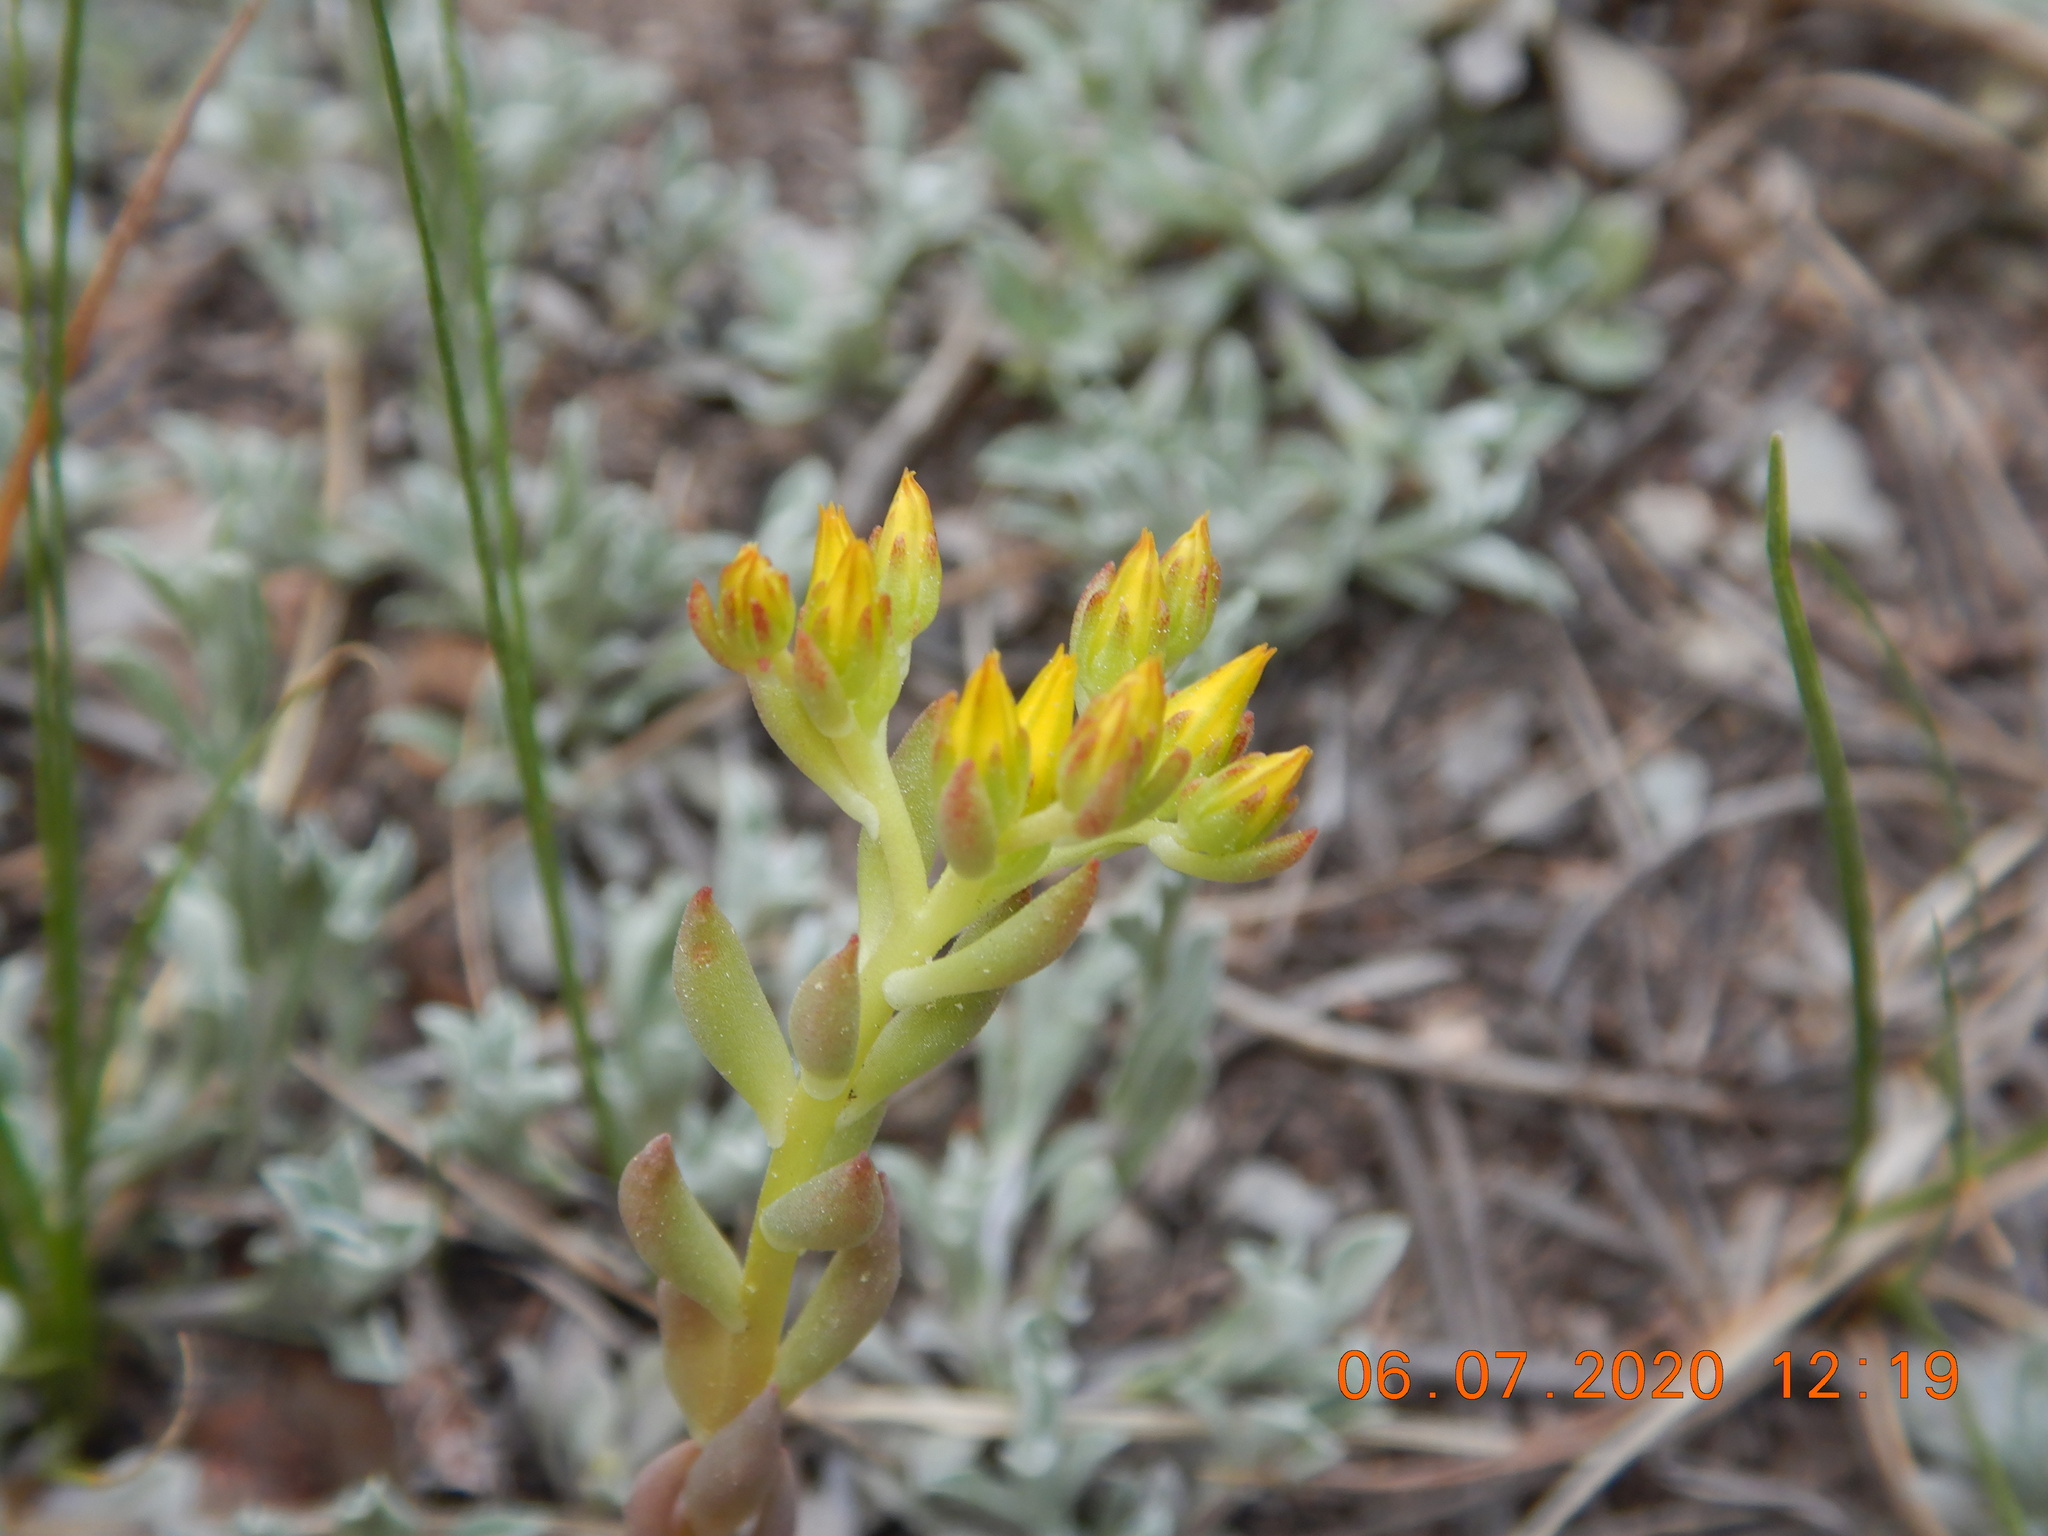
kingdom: Plantae
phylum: Tracheophyta
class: Magnoliopsida
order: Saxifragales
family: Crassulaceae
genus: Sedum
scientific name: Sedum lanceolatum
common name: Common stonecrop
